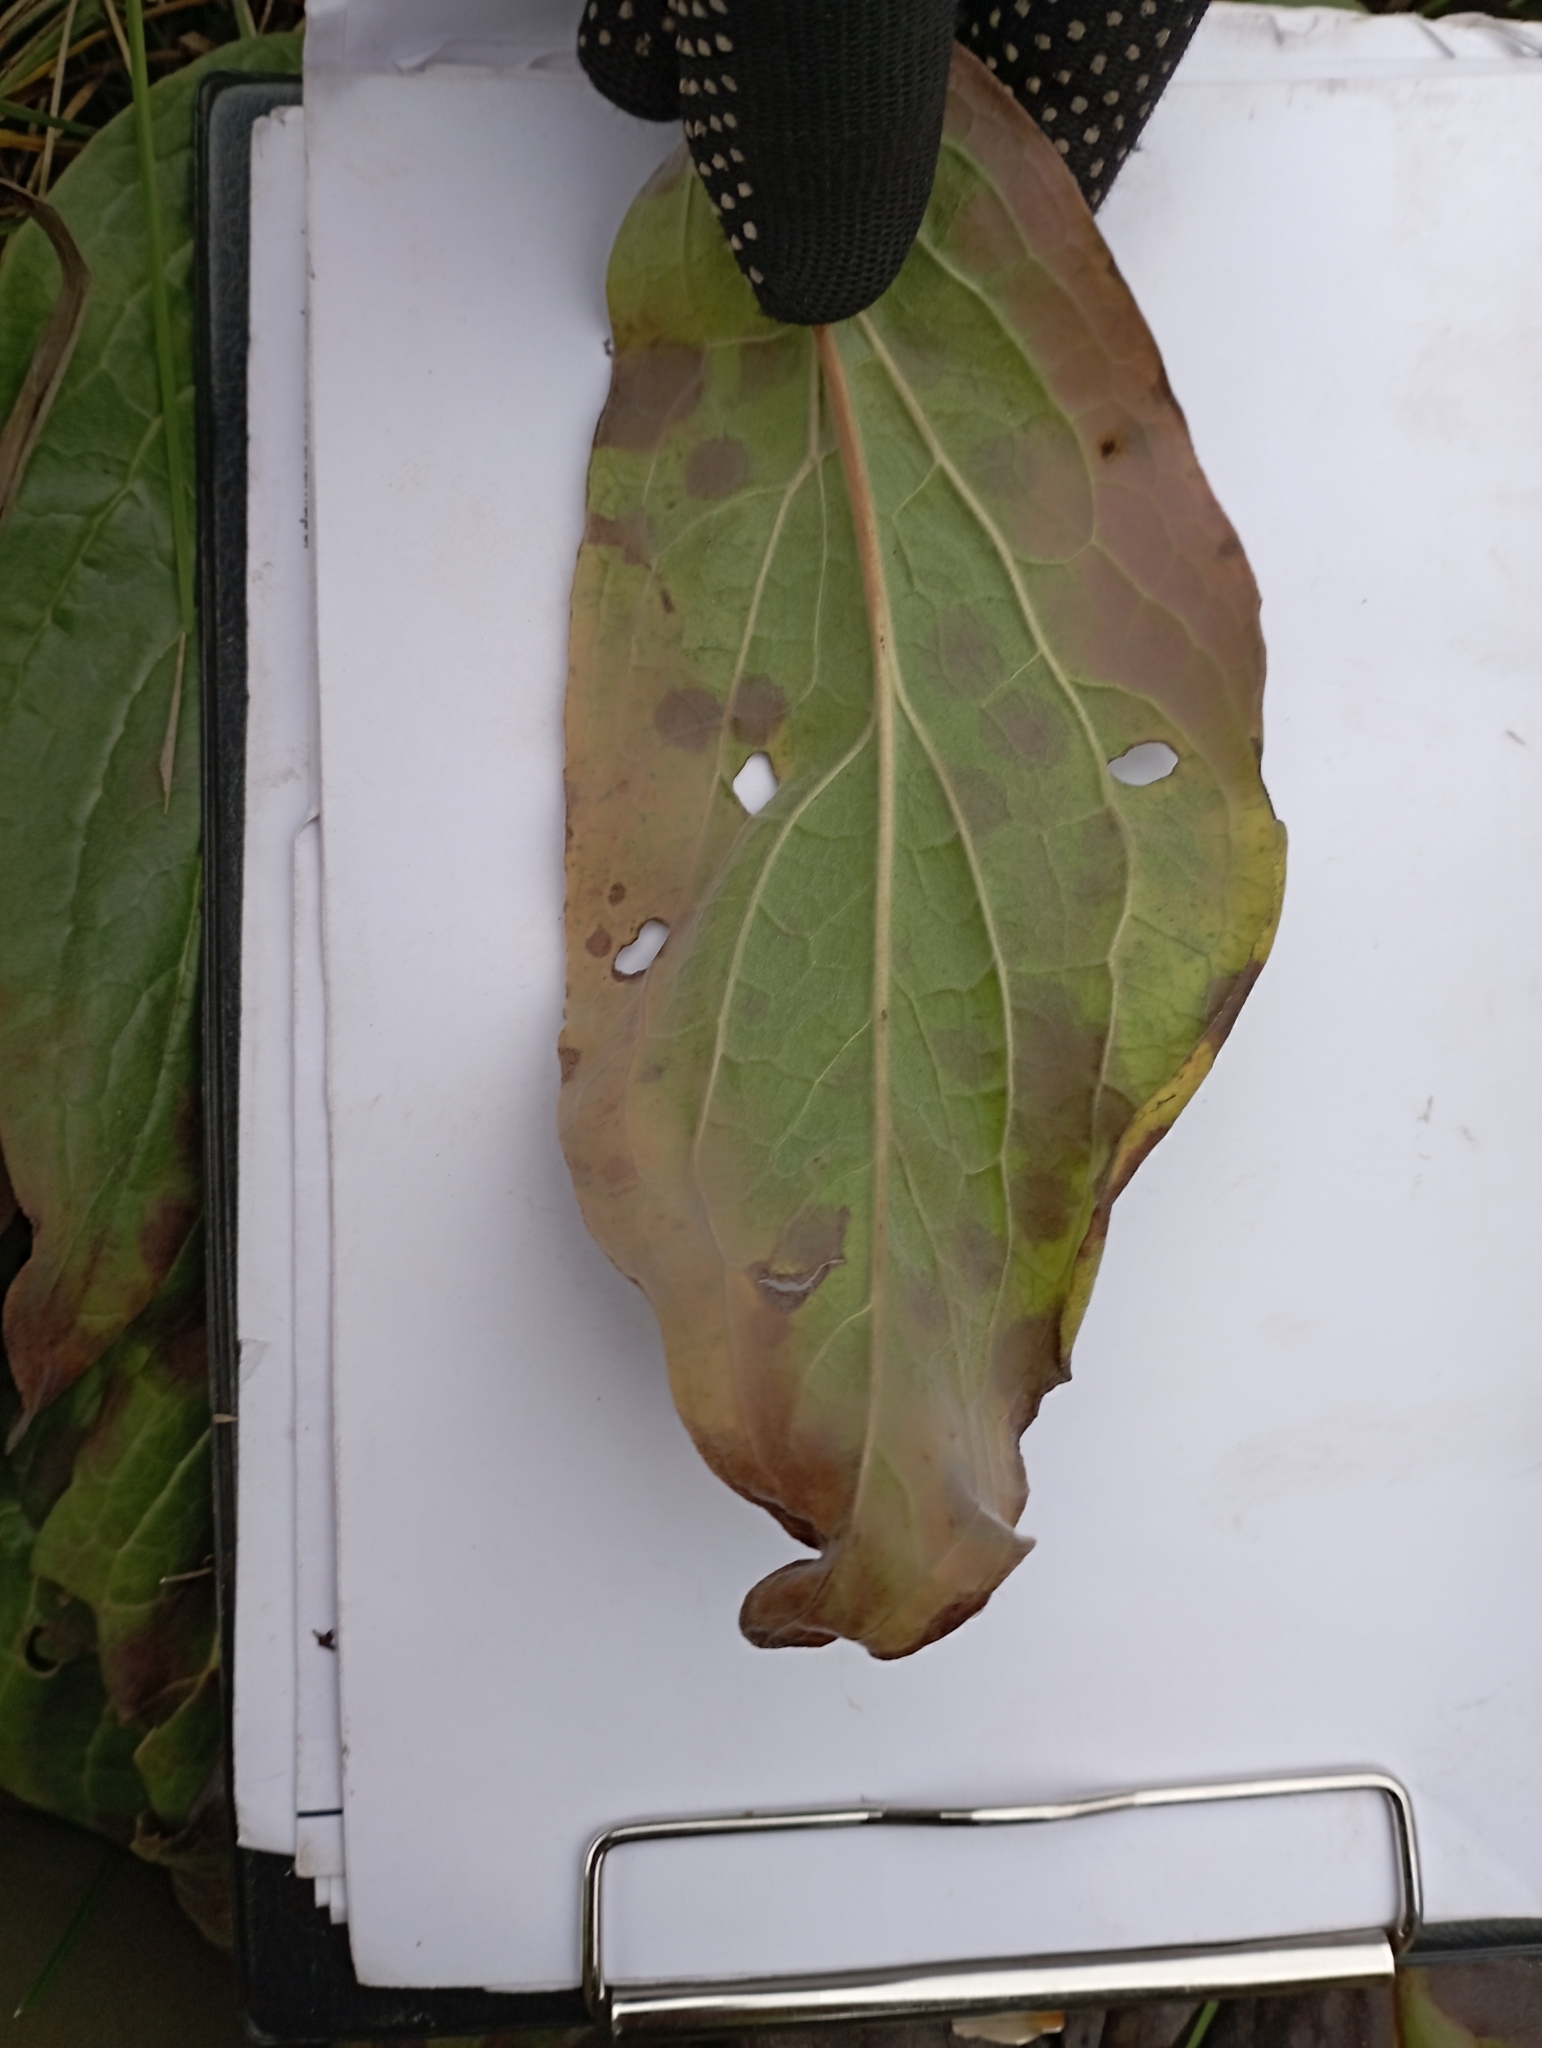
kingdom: Plantae
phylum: Tracheophyta
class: Magnoliopsida
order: Asterales
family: Asteraceae
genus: Solidago
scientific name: Solidago virgaurea
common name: Goldenrod
